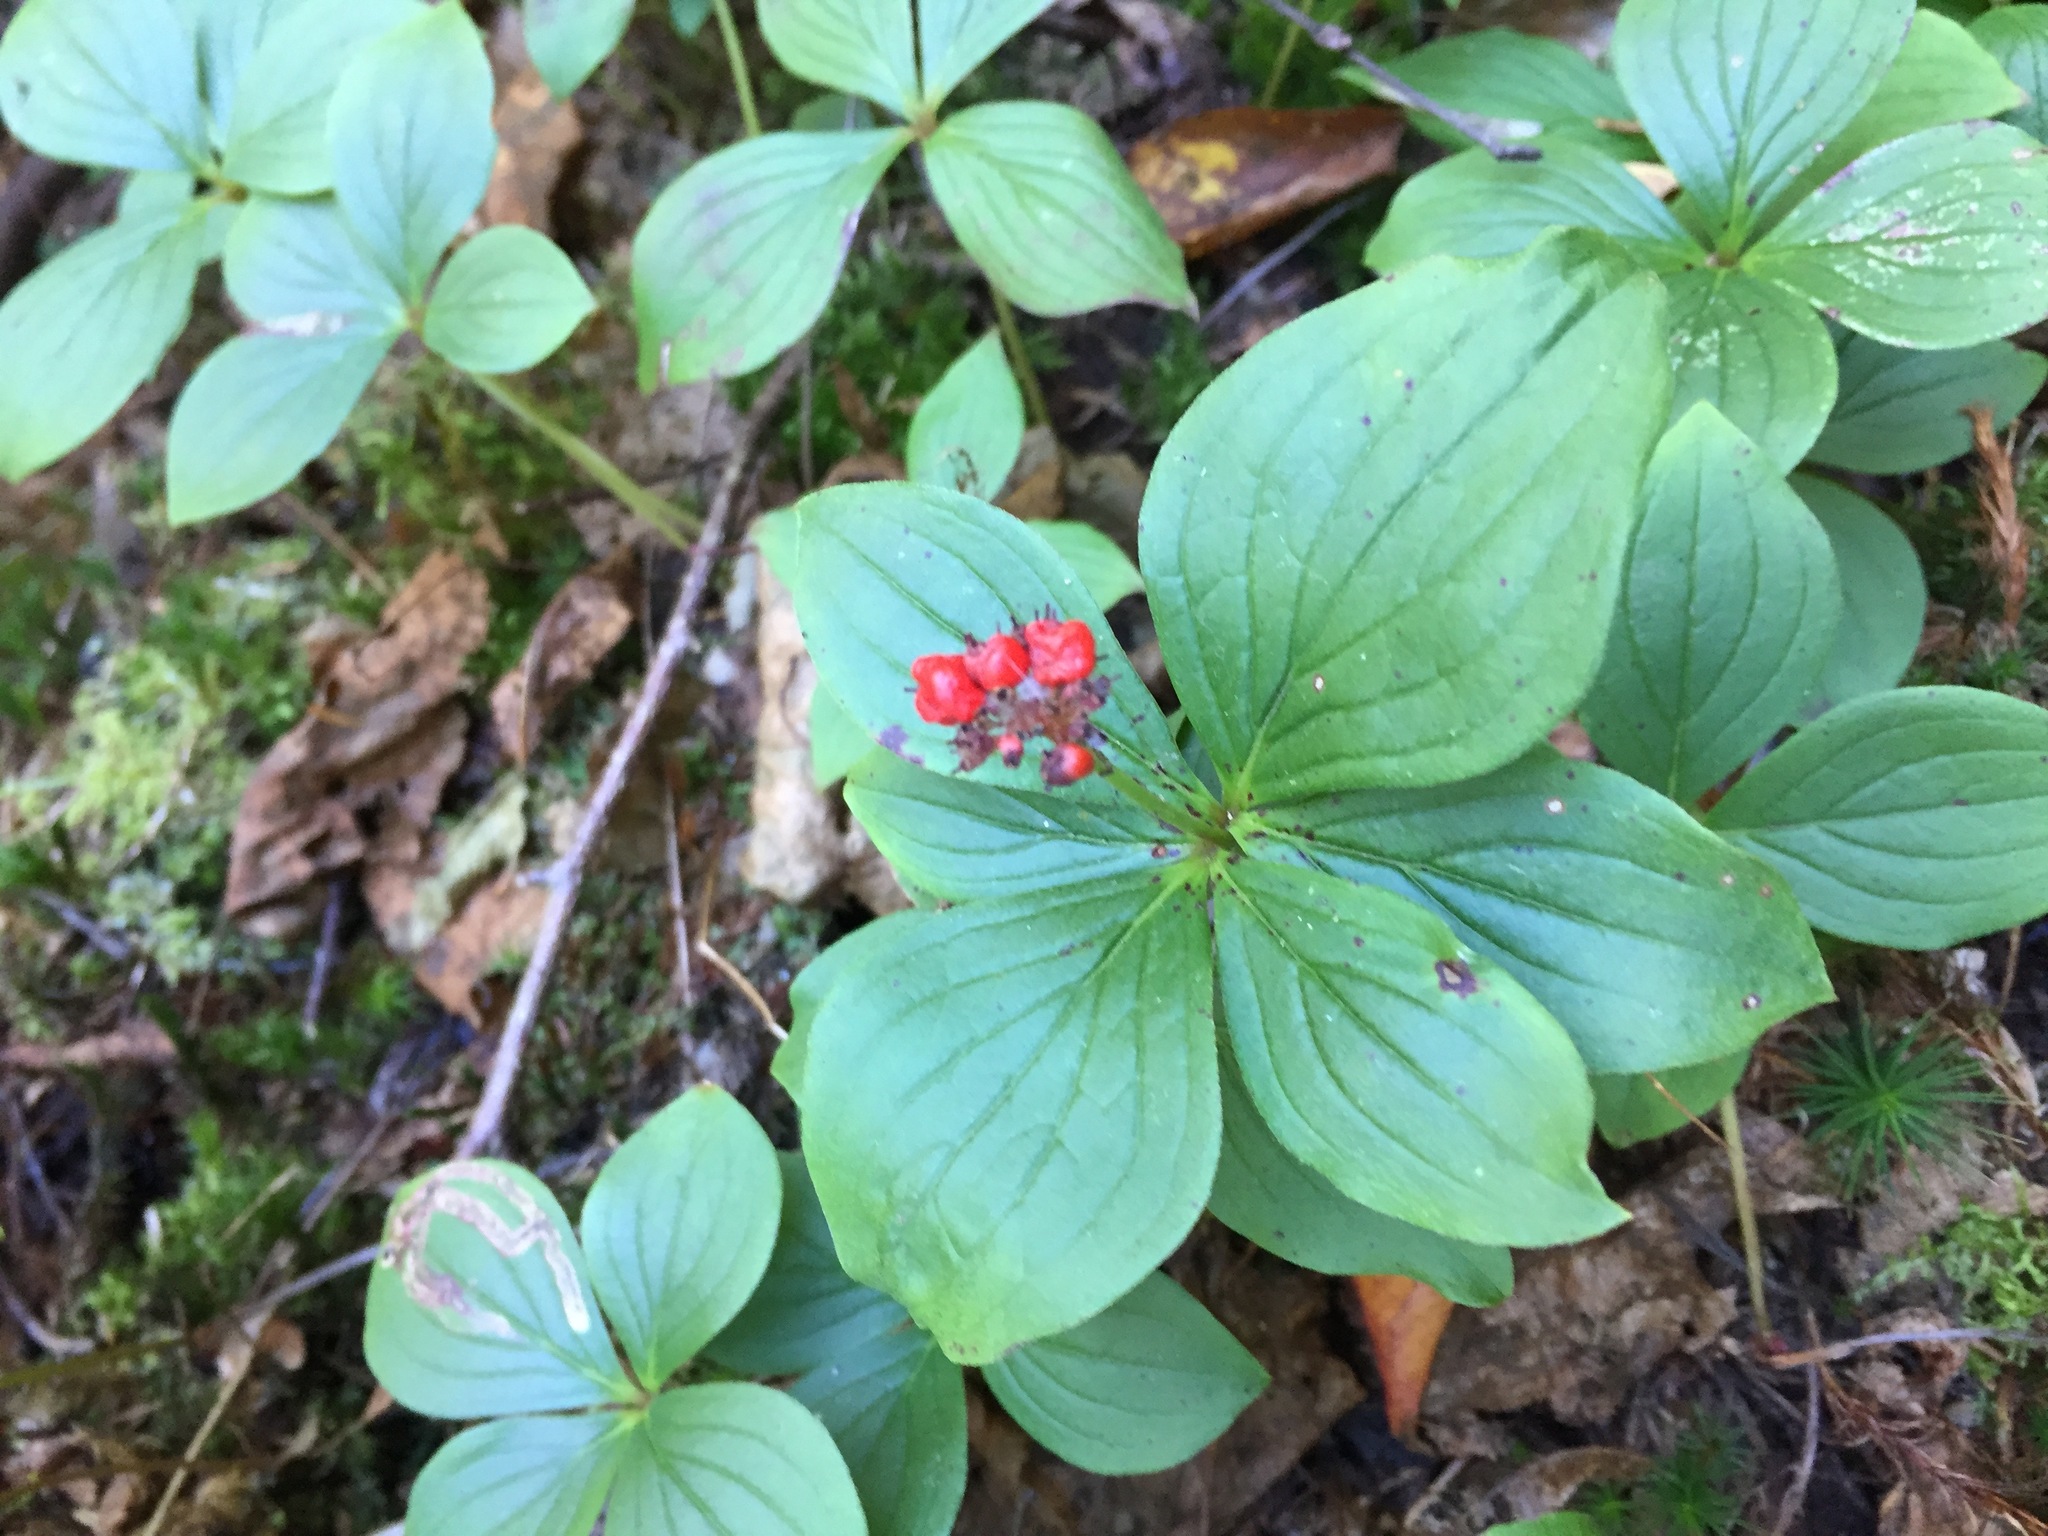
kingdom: Plantae
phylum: Tracheophyta
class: Magnoliopsida
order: Cornales
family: Cornaceae
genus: Cornus
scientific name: Cornus canadensis
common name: Creeping dogwood
